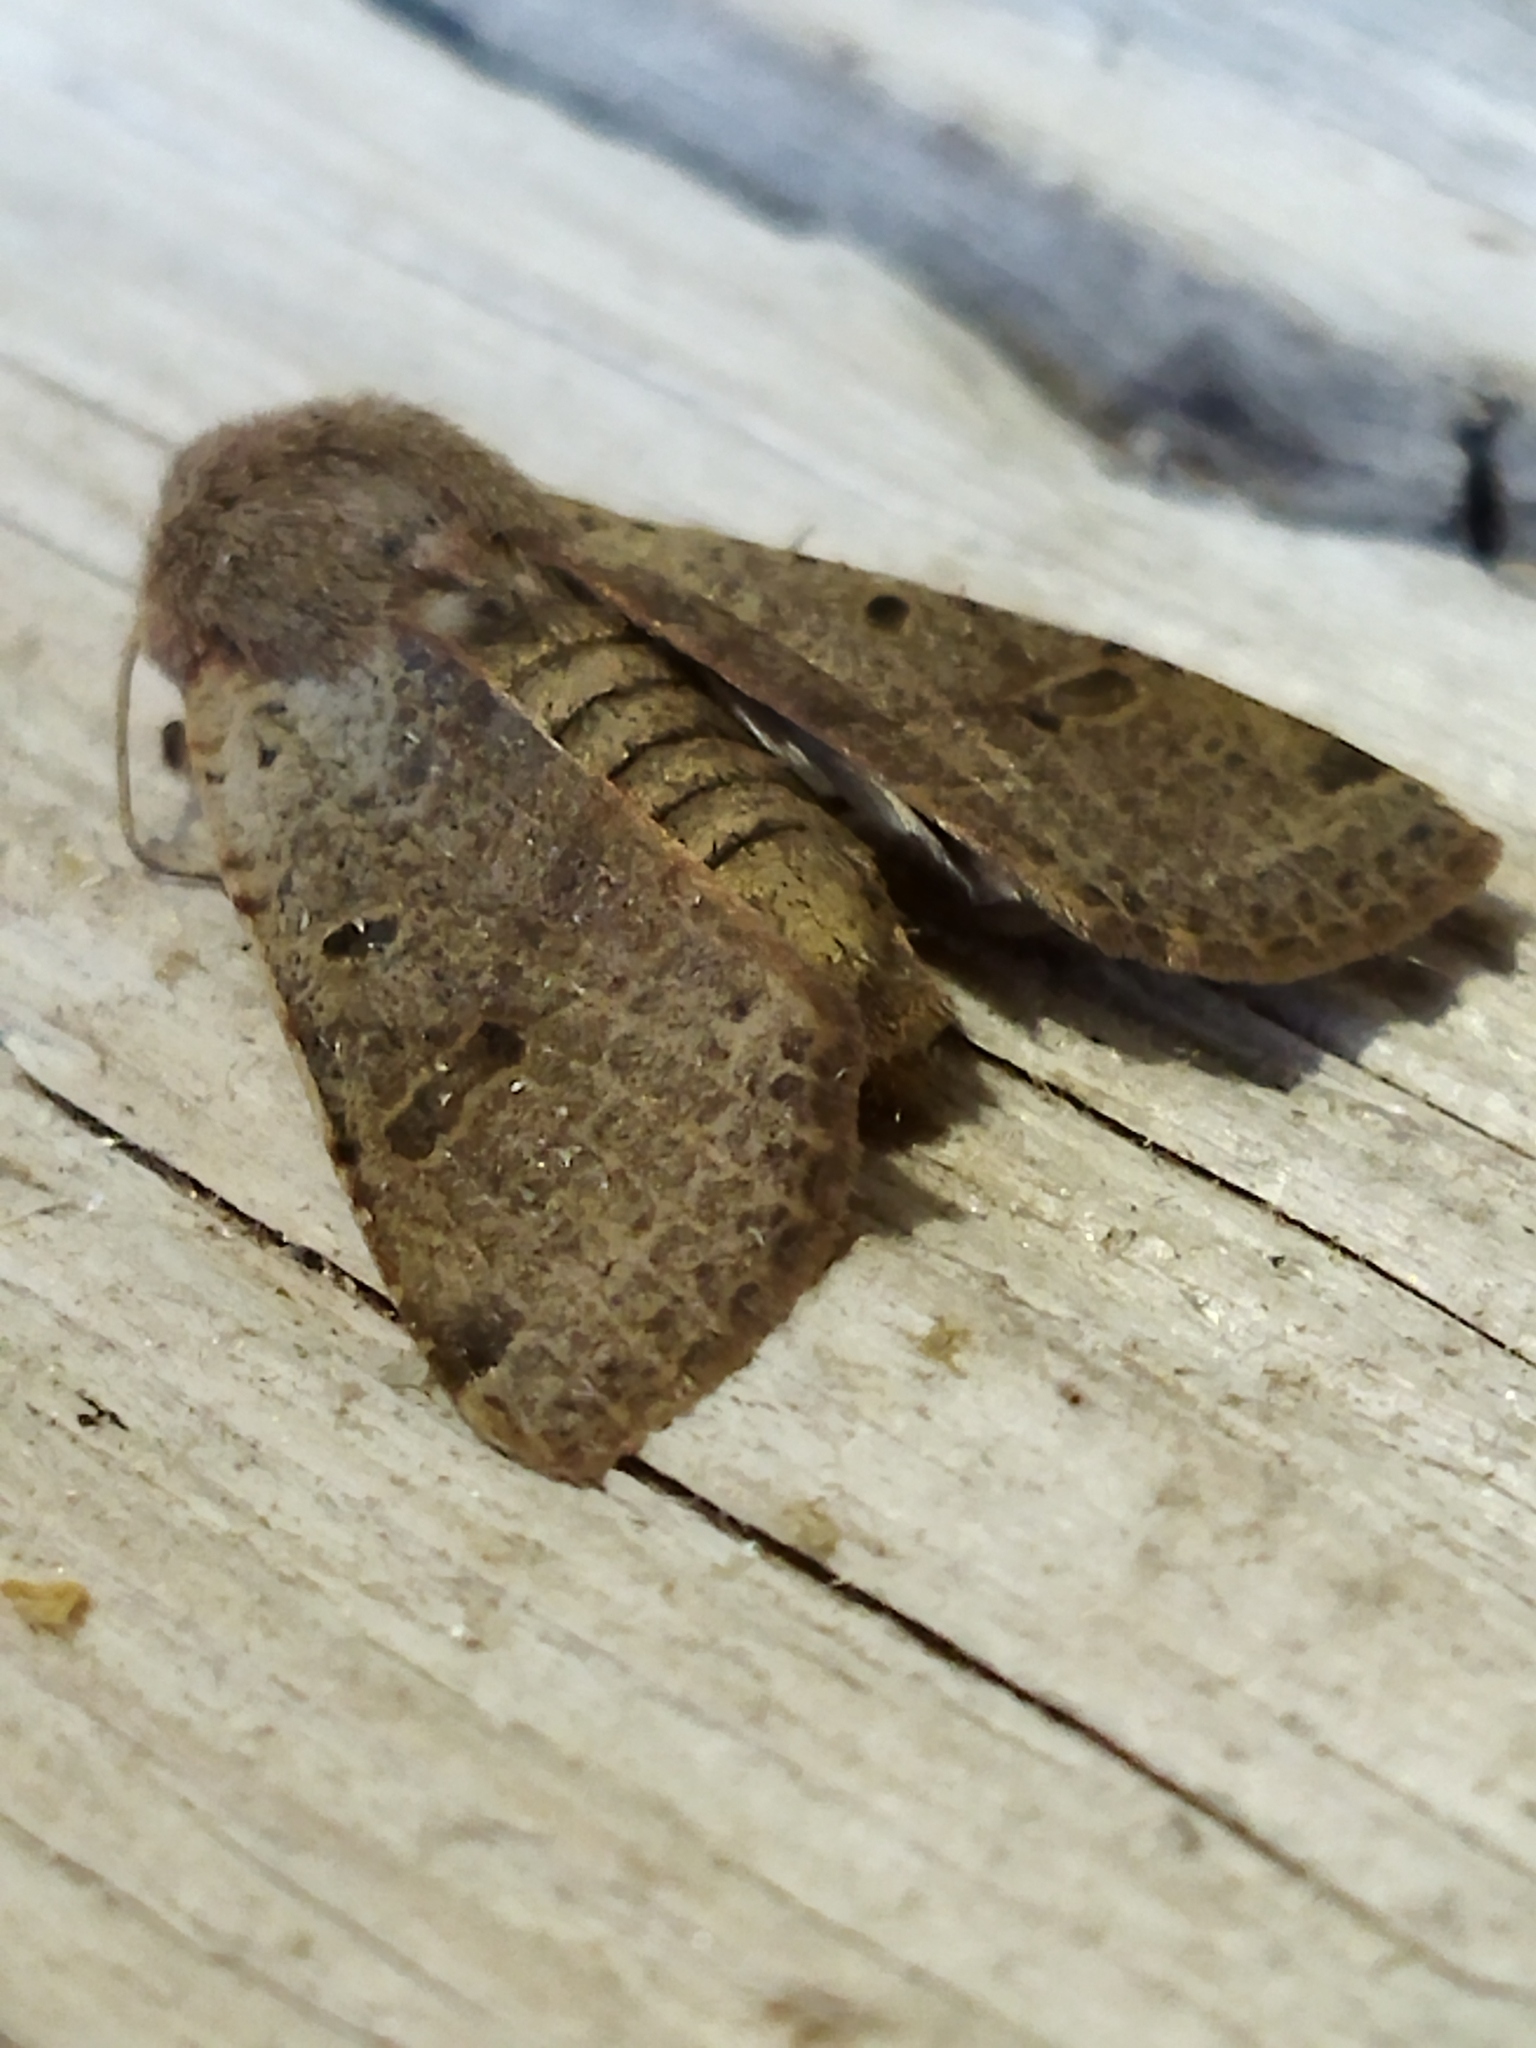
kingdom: Animalia
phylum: Arthropoda
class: Insecta
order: Lepidoptera
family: Noctuidae
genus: Agrochola
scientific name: Agrochola lychnidis
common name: Beaded chestnut
